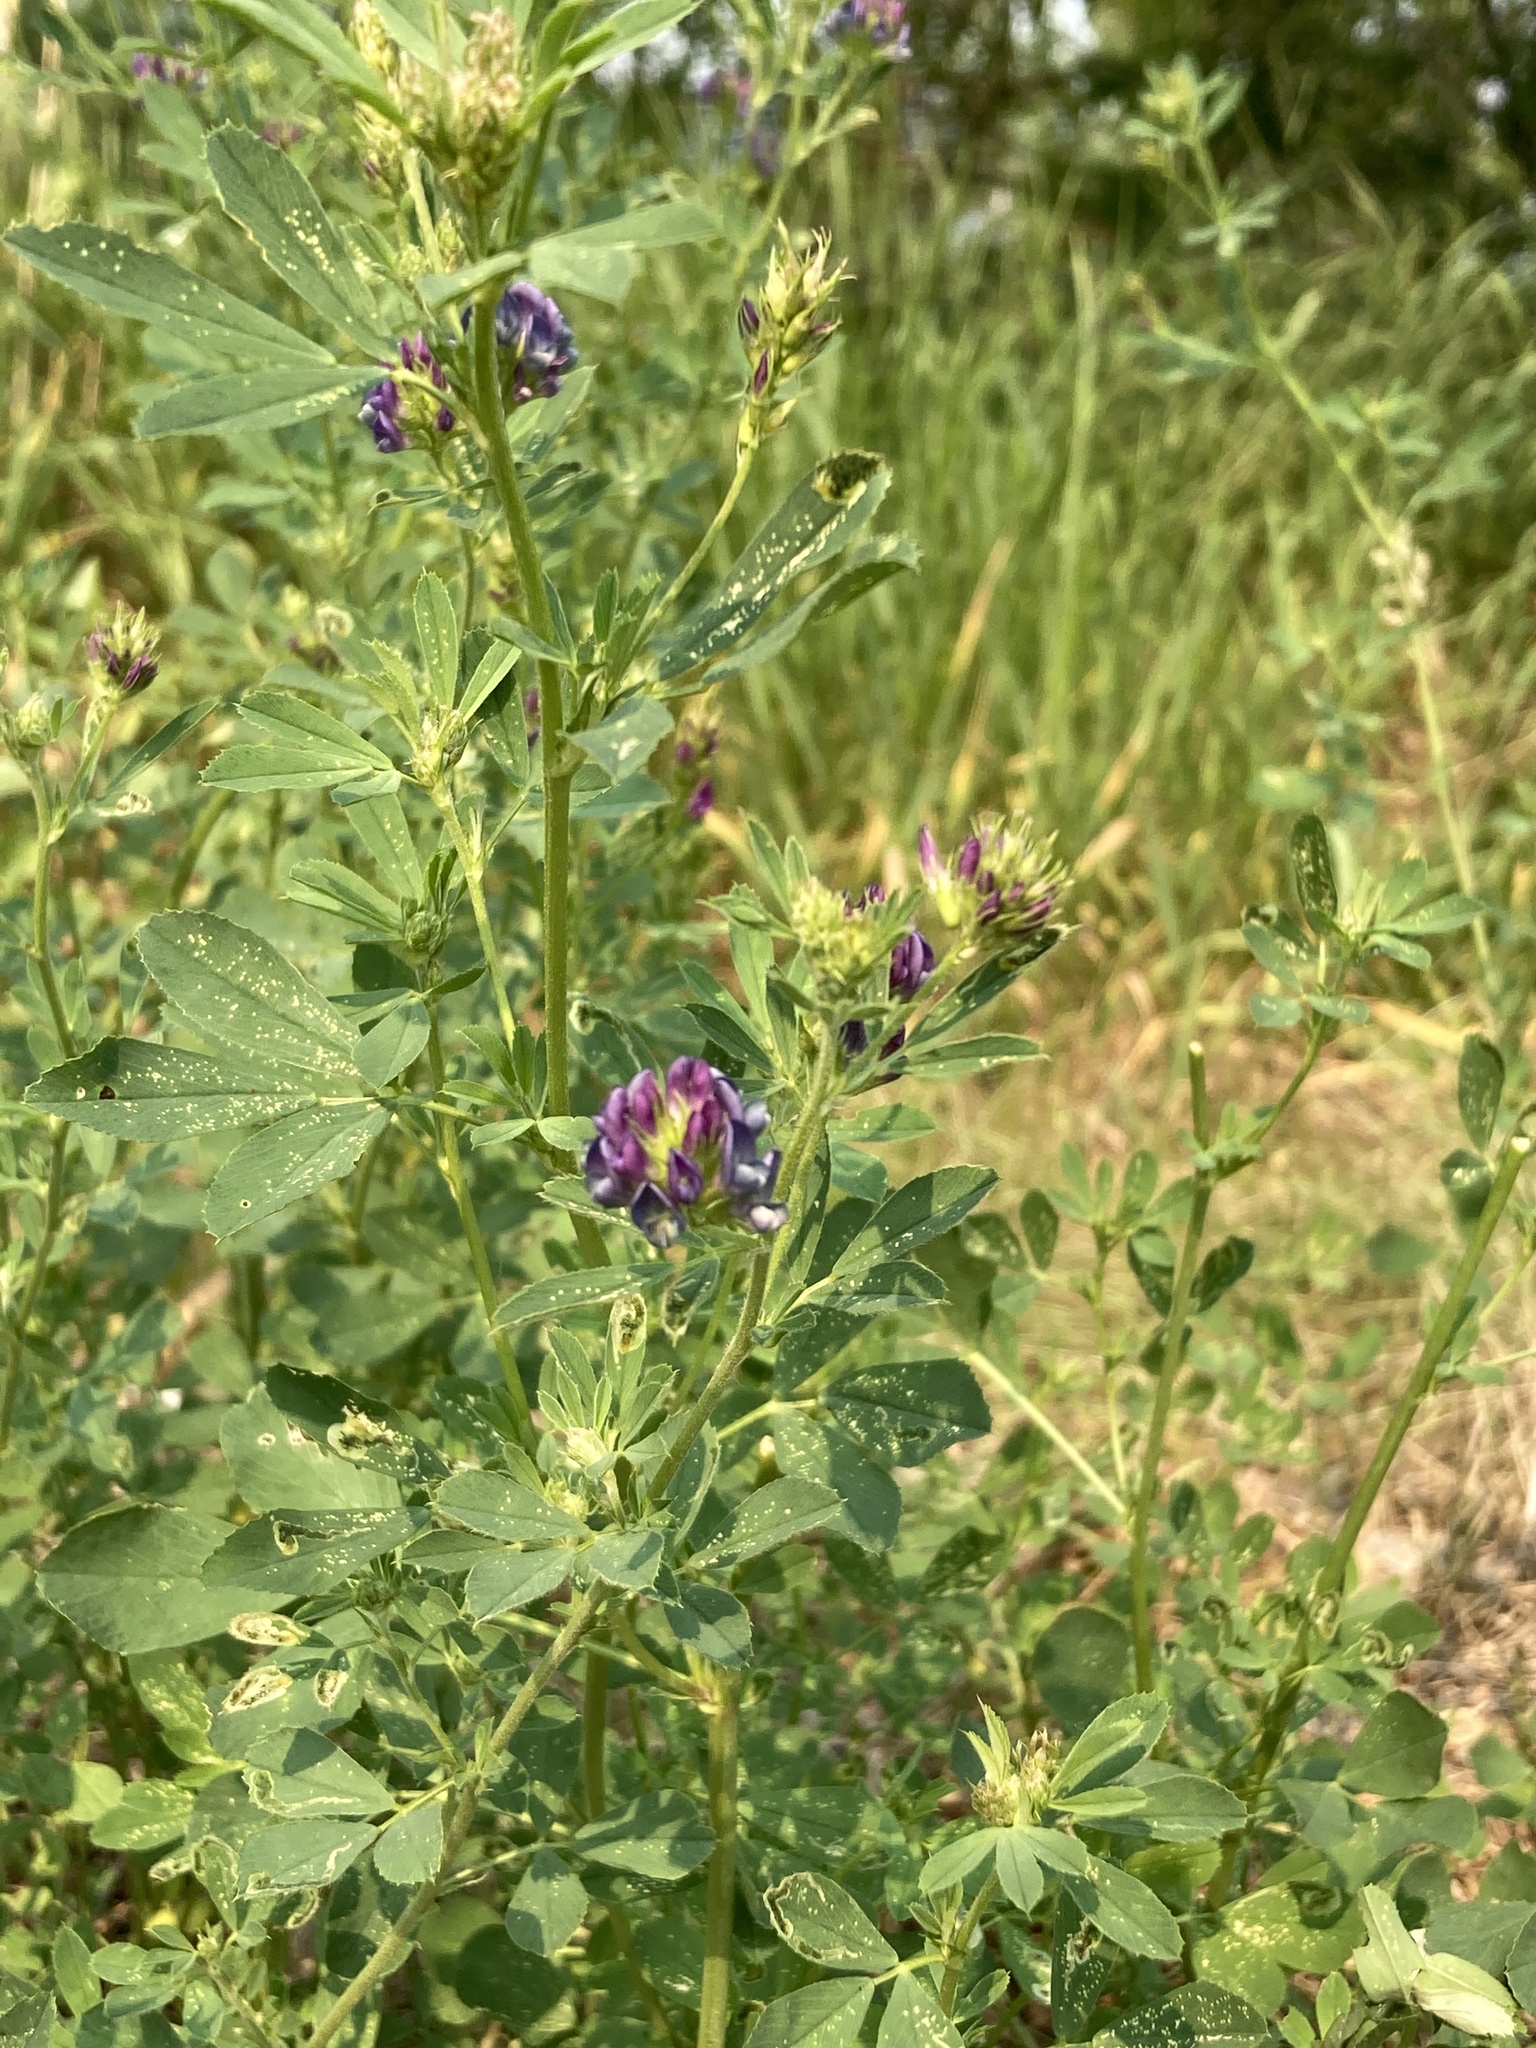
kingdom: Plantae
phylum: Tracheophyta
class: Magnoliopsida
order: Fabales
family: Fabaceae
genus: Medicago
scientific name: Medicago sativa
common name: Alfalfa
